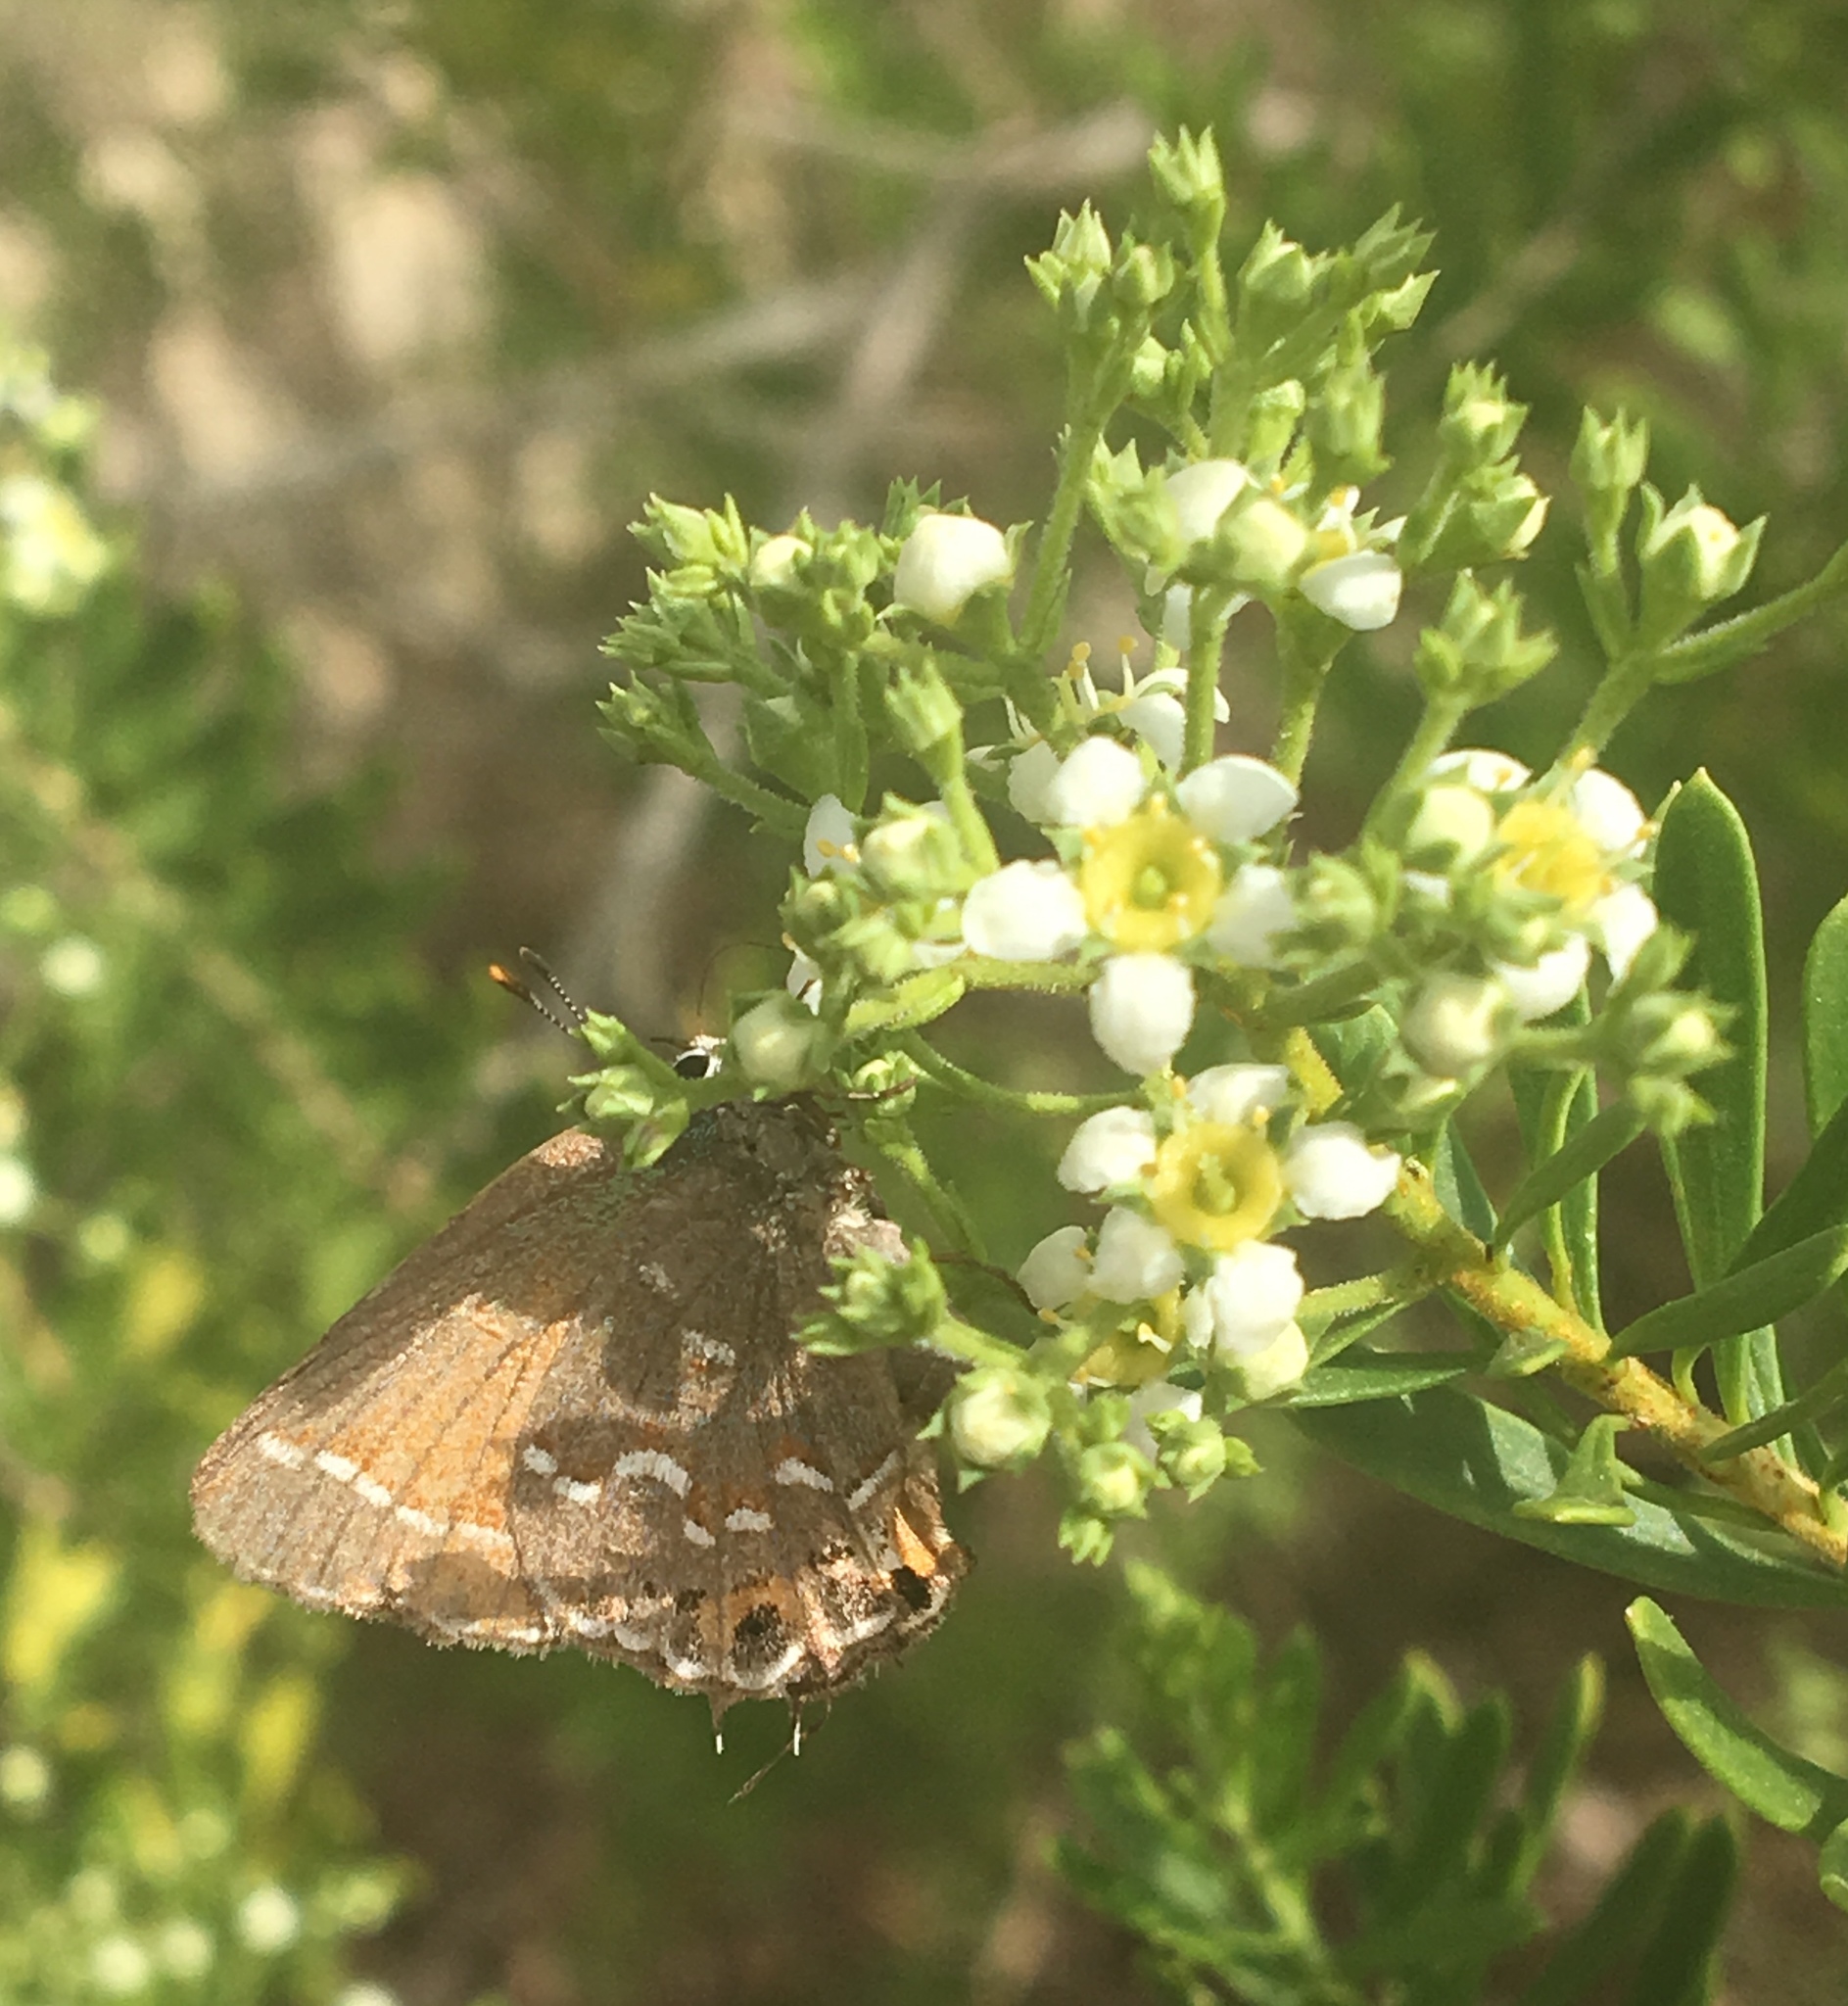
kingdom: Animalia
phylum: Arthropoda
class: Insecta
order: Lepidoptera
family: Lycaenidae
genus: Mitoura
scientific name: Mitoura gryneus
